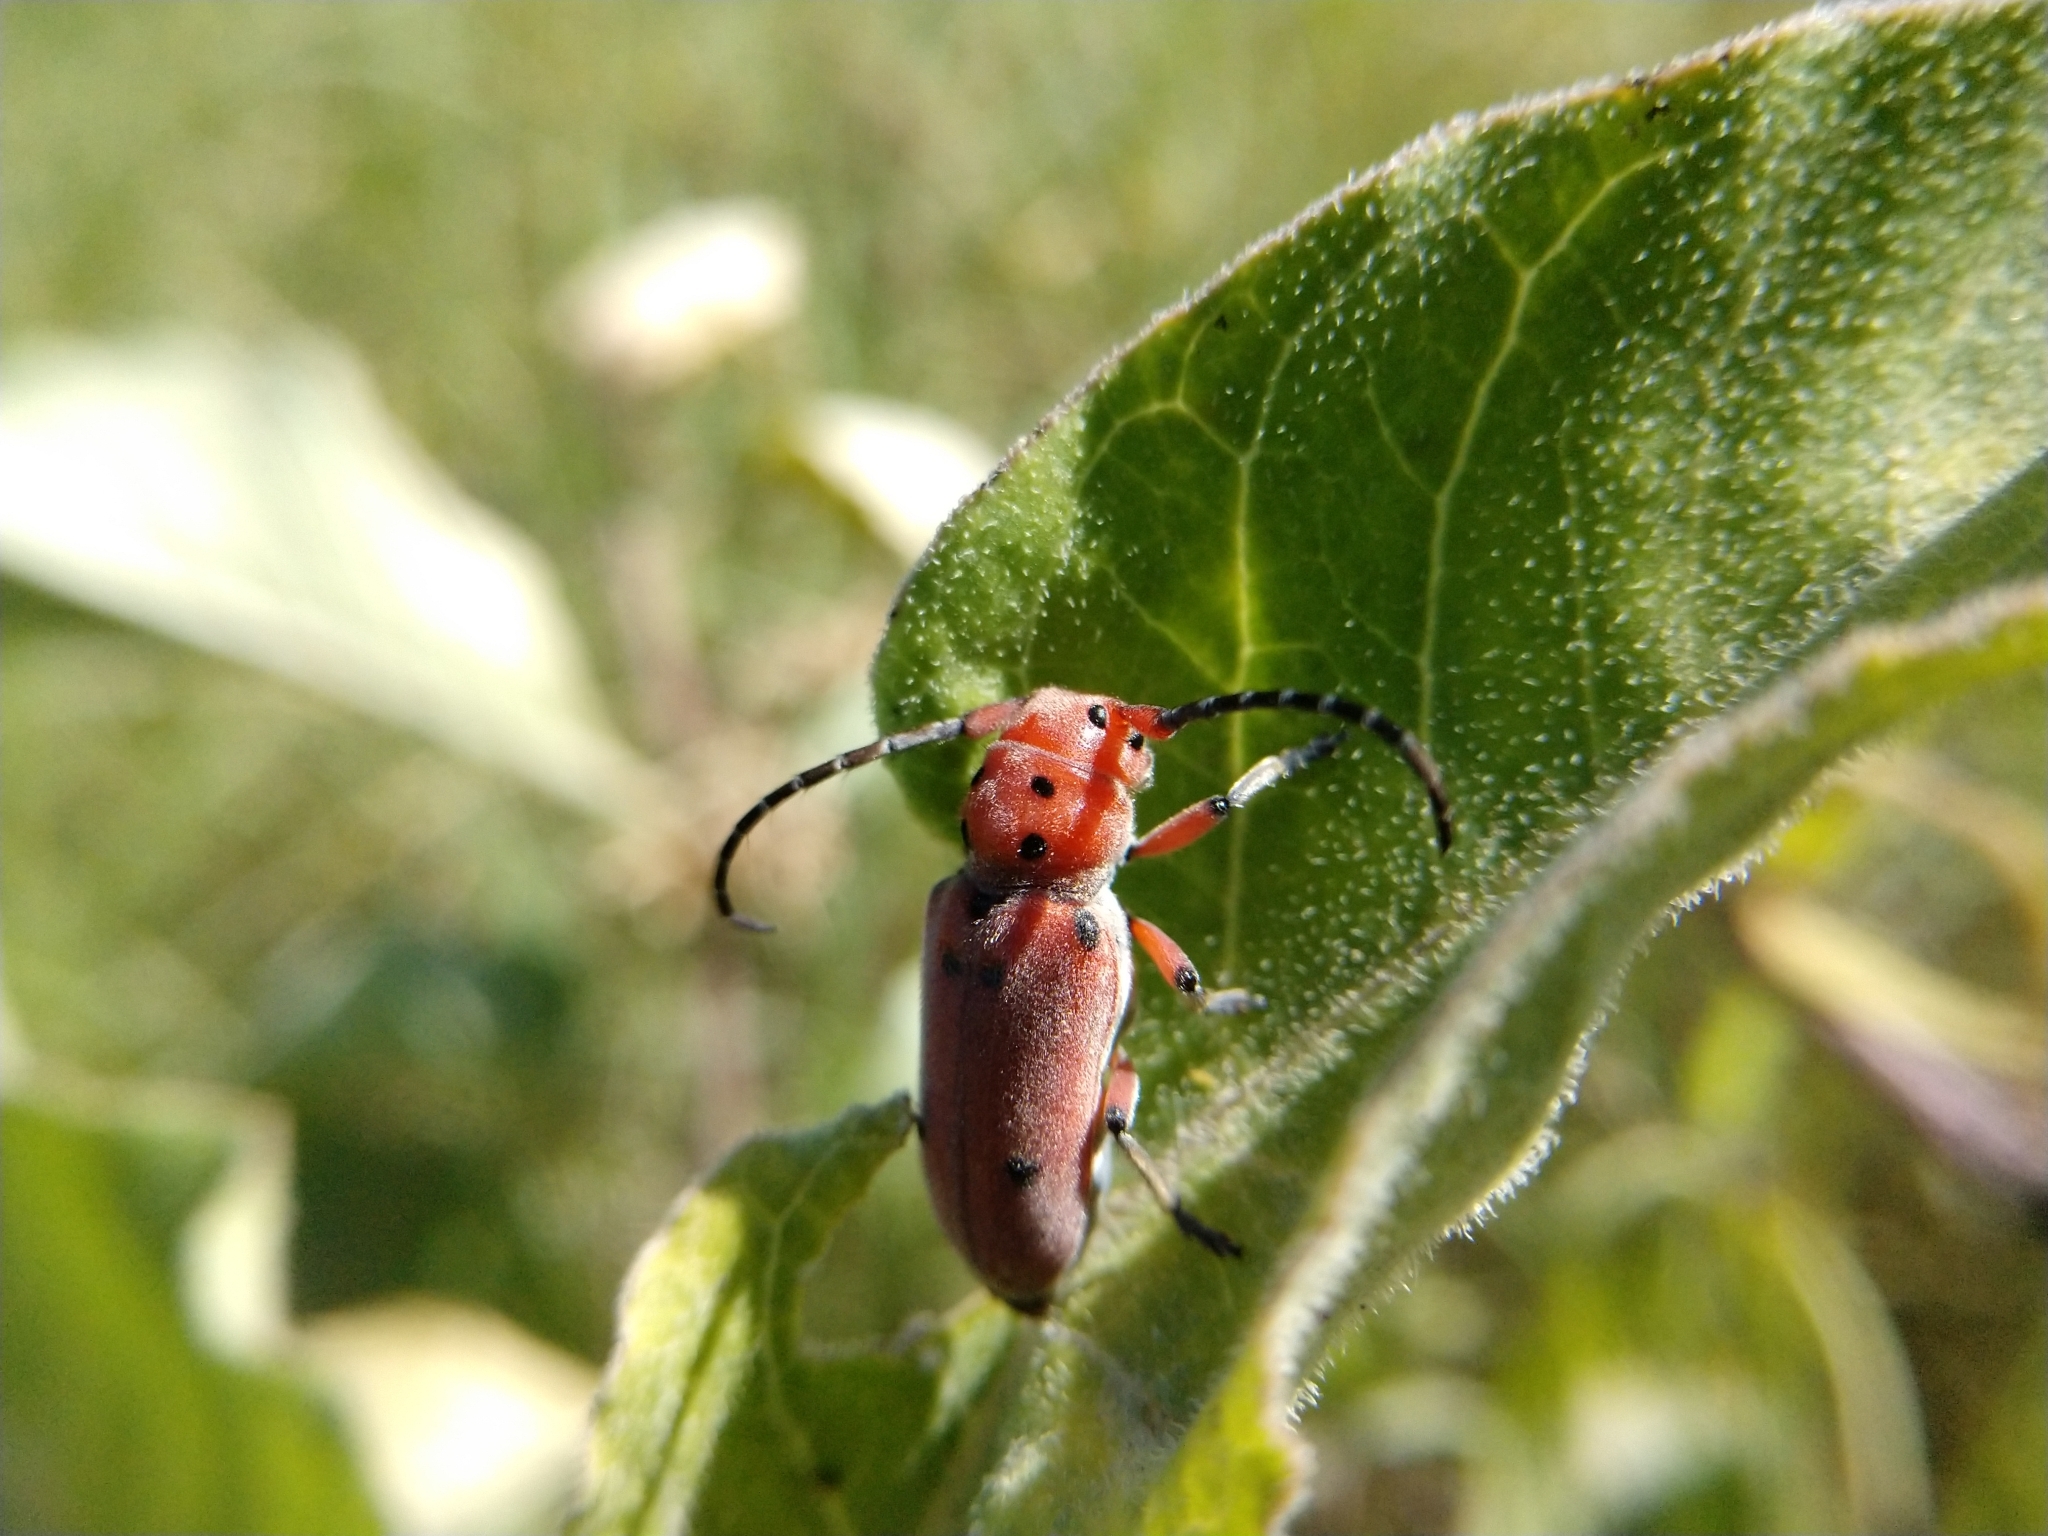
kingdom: Animalia
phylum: Arthropoda
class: Insecta
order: Coleoptera
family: Cerambycidae
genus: Tetraopes
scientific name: Tetraopes texanus
